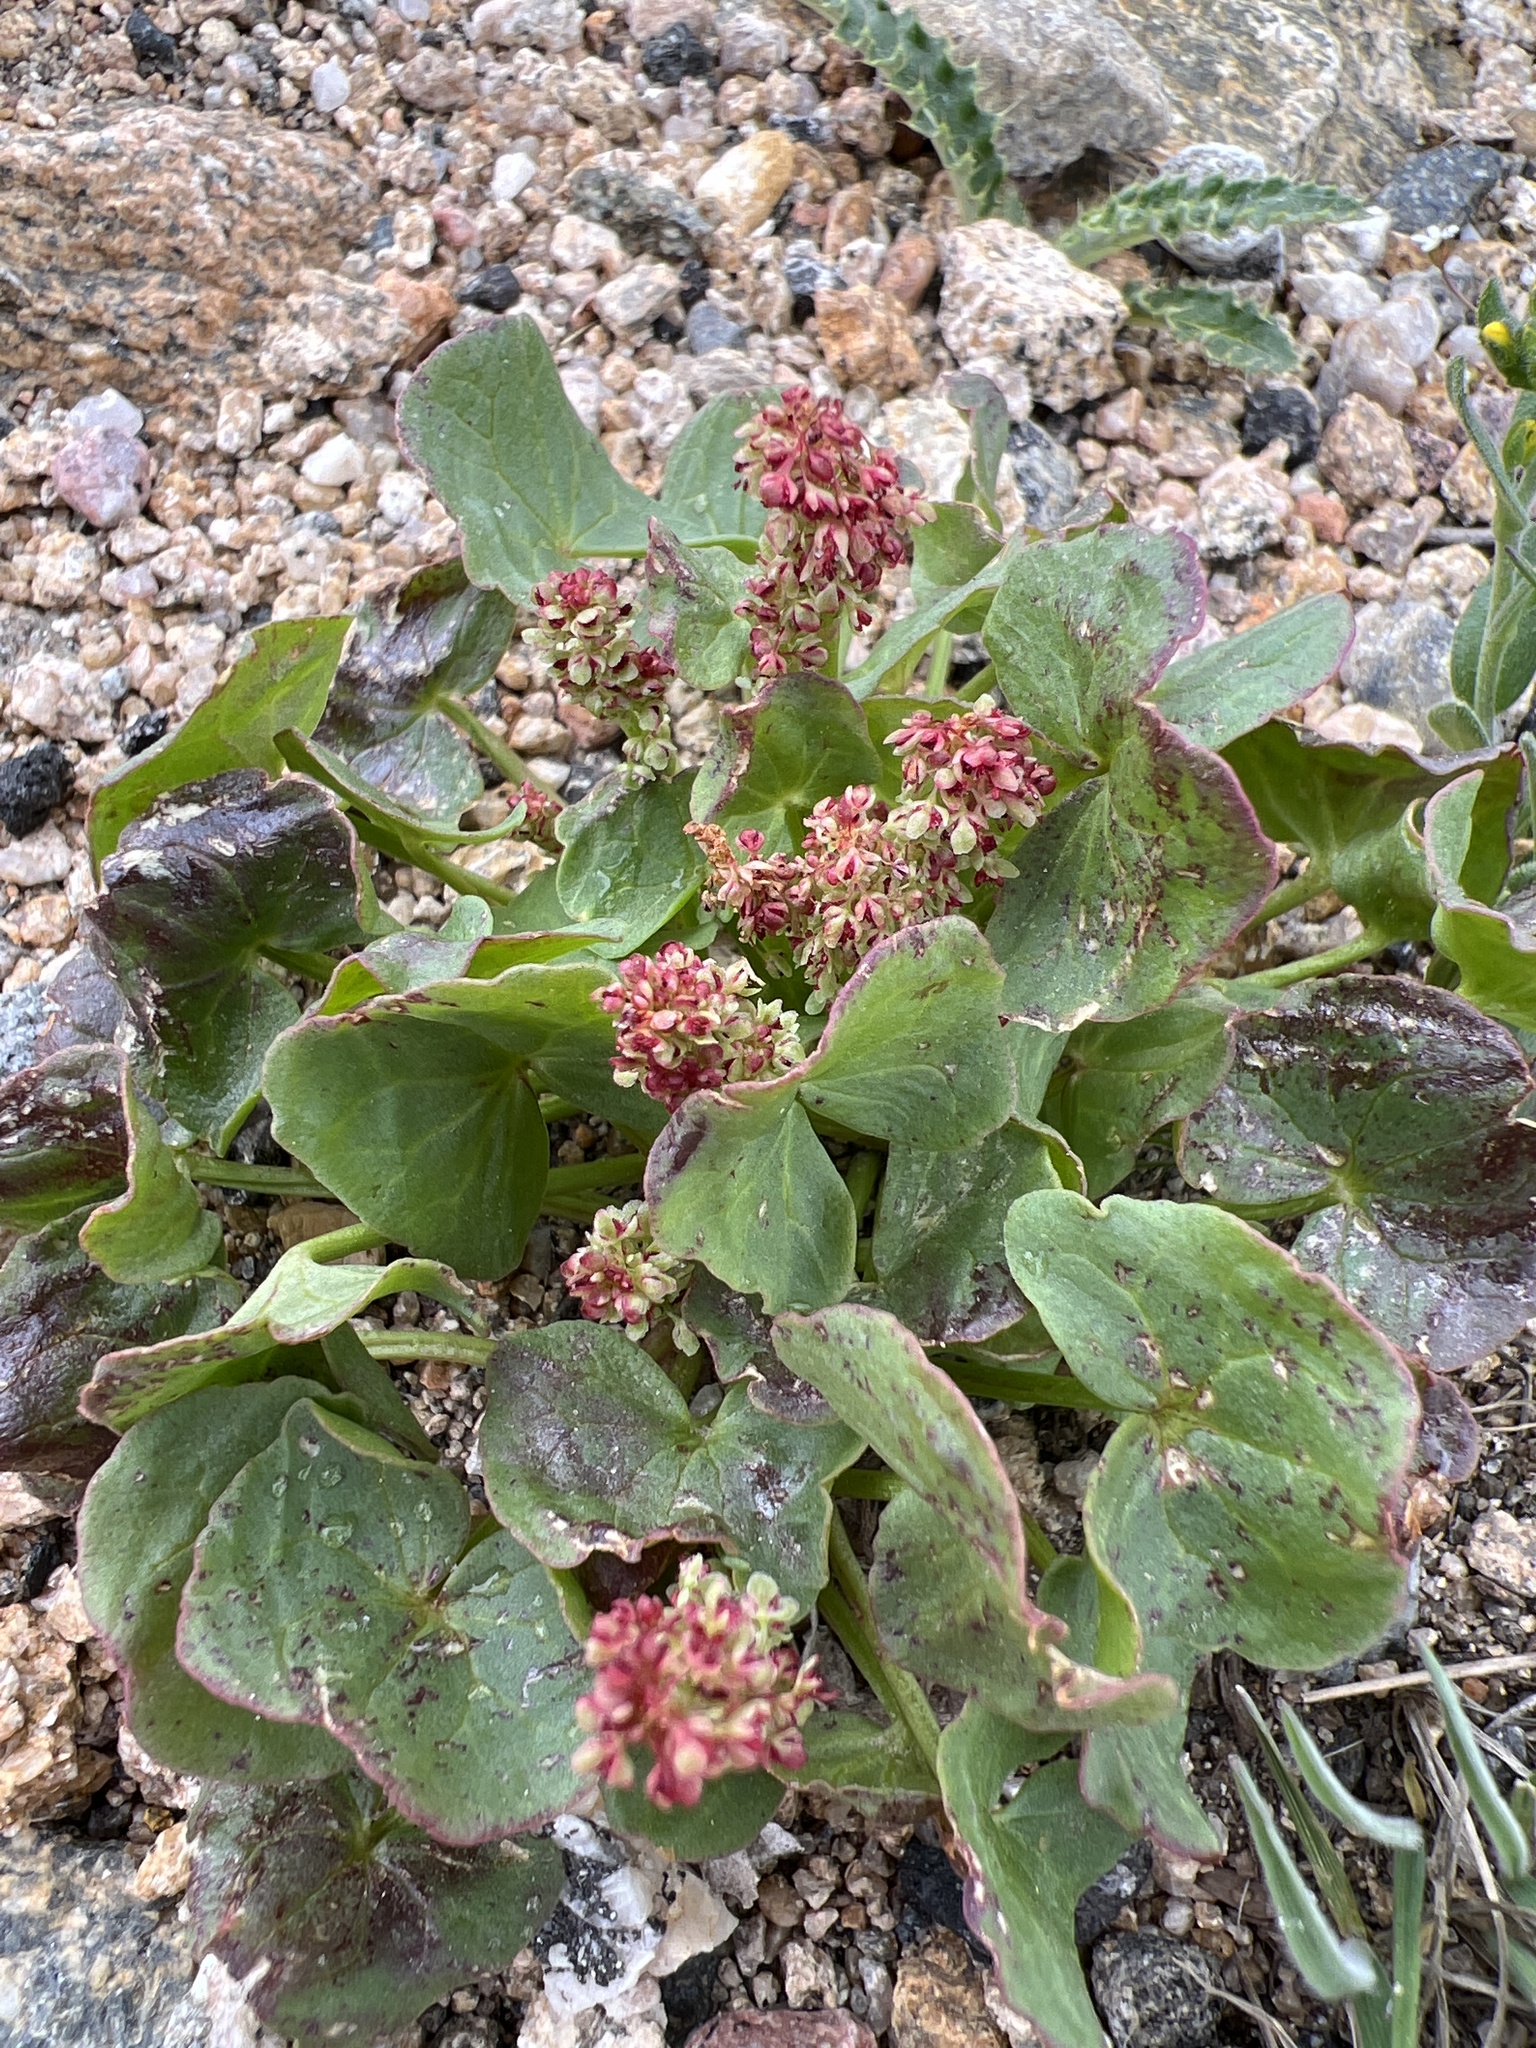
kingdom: Plantae
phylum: Tracheophyta
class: Magnoliopsida
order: Caryophyllales
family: Polygonaceae
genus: Oxyria
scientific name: Oxyria digyna
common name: Alpine mountain-sorrel
